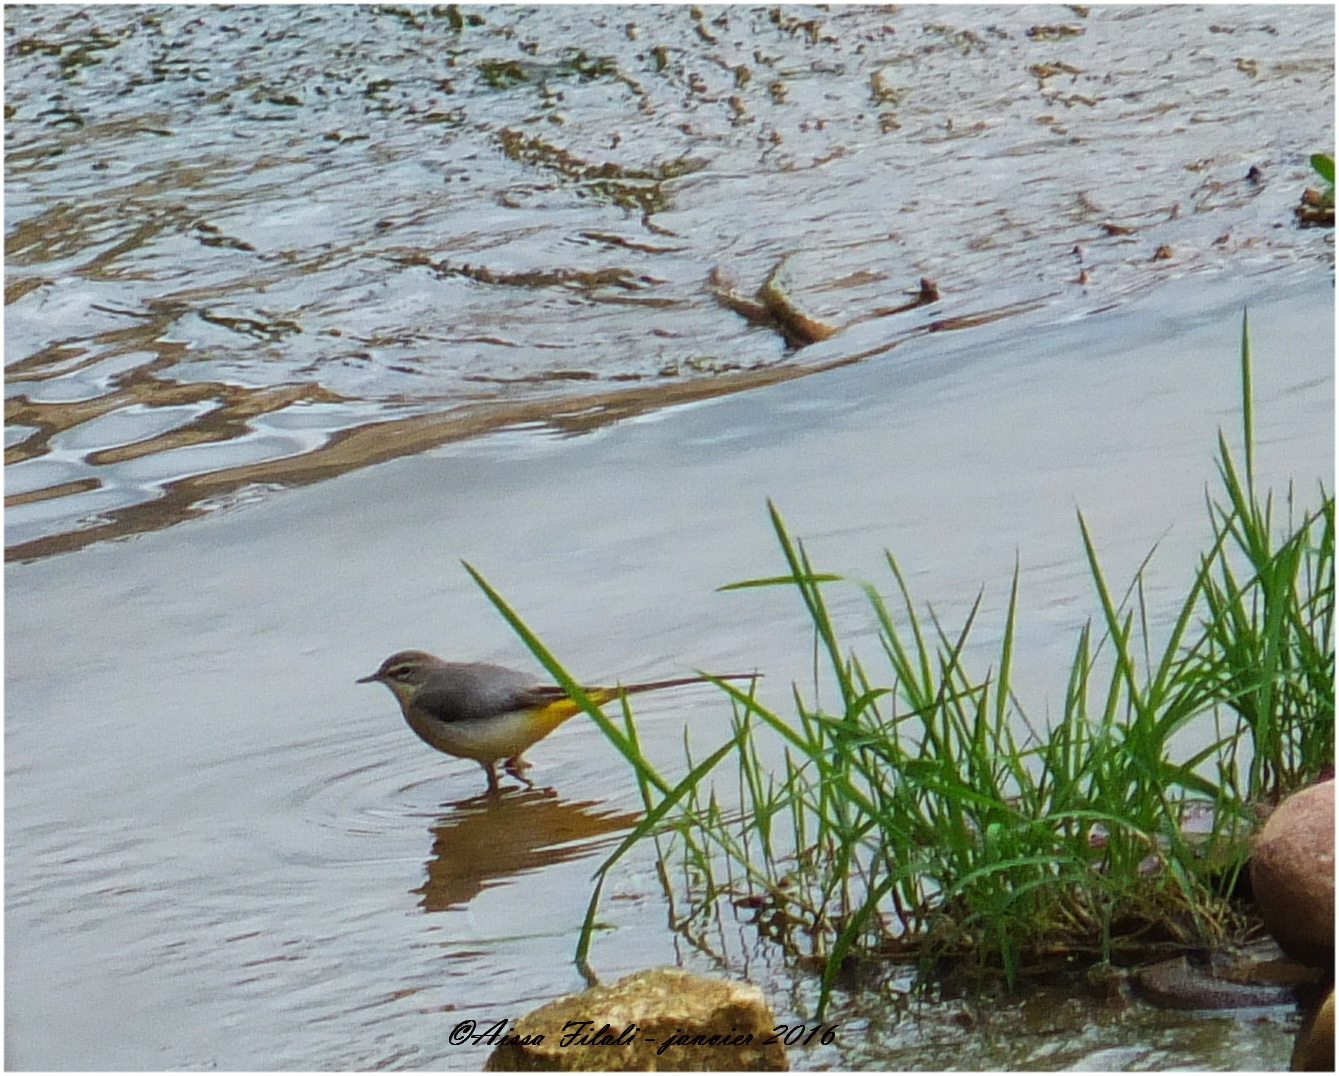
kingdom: Animalia
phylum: Chordata
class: Aves
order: Passeriformes
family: Motacillidae
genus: Motacilla
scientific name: Motacilla cinerea
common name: Grey wagtail
